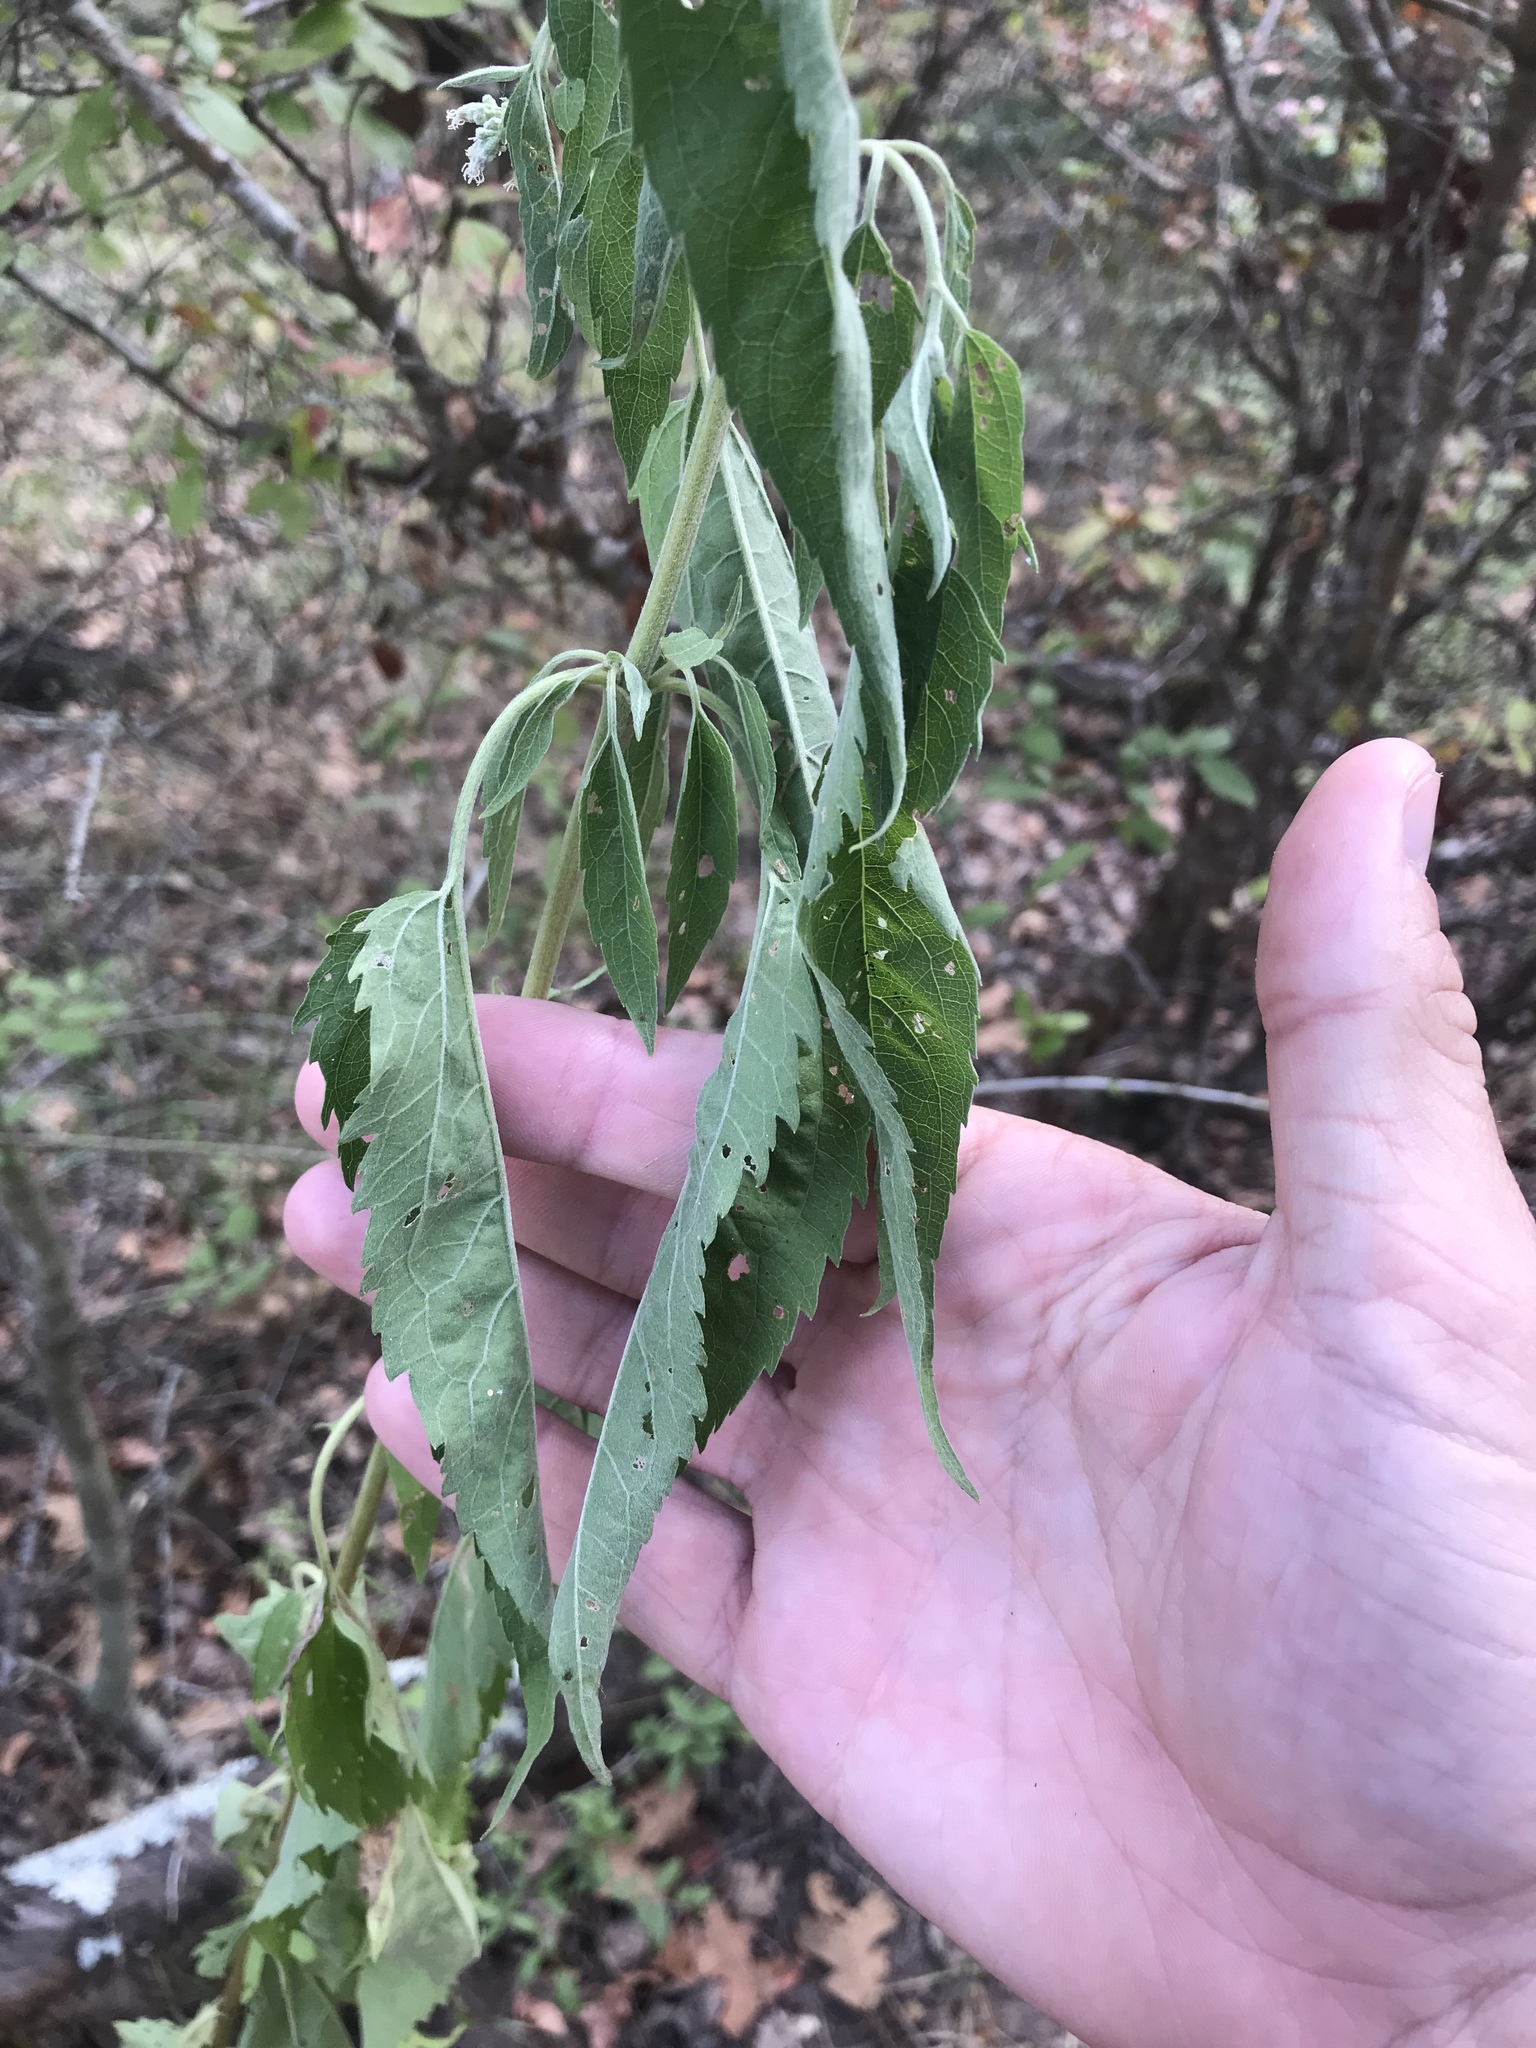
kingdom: Plantae
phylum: Tracheophyta
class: Magnoliopsida
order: Asterales
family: Asteraceae
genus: Eupatorium
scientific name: Eupatorium serotinum
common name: Late boneset
